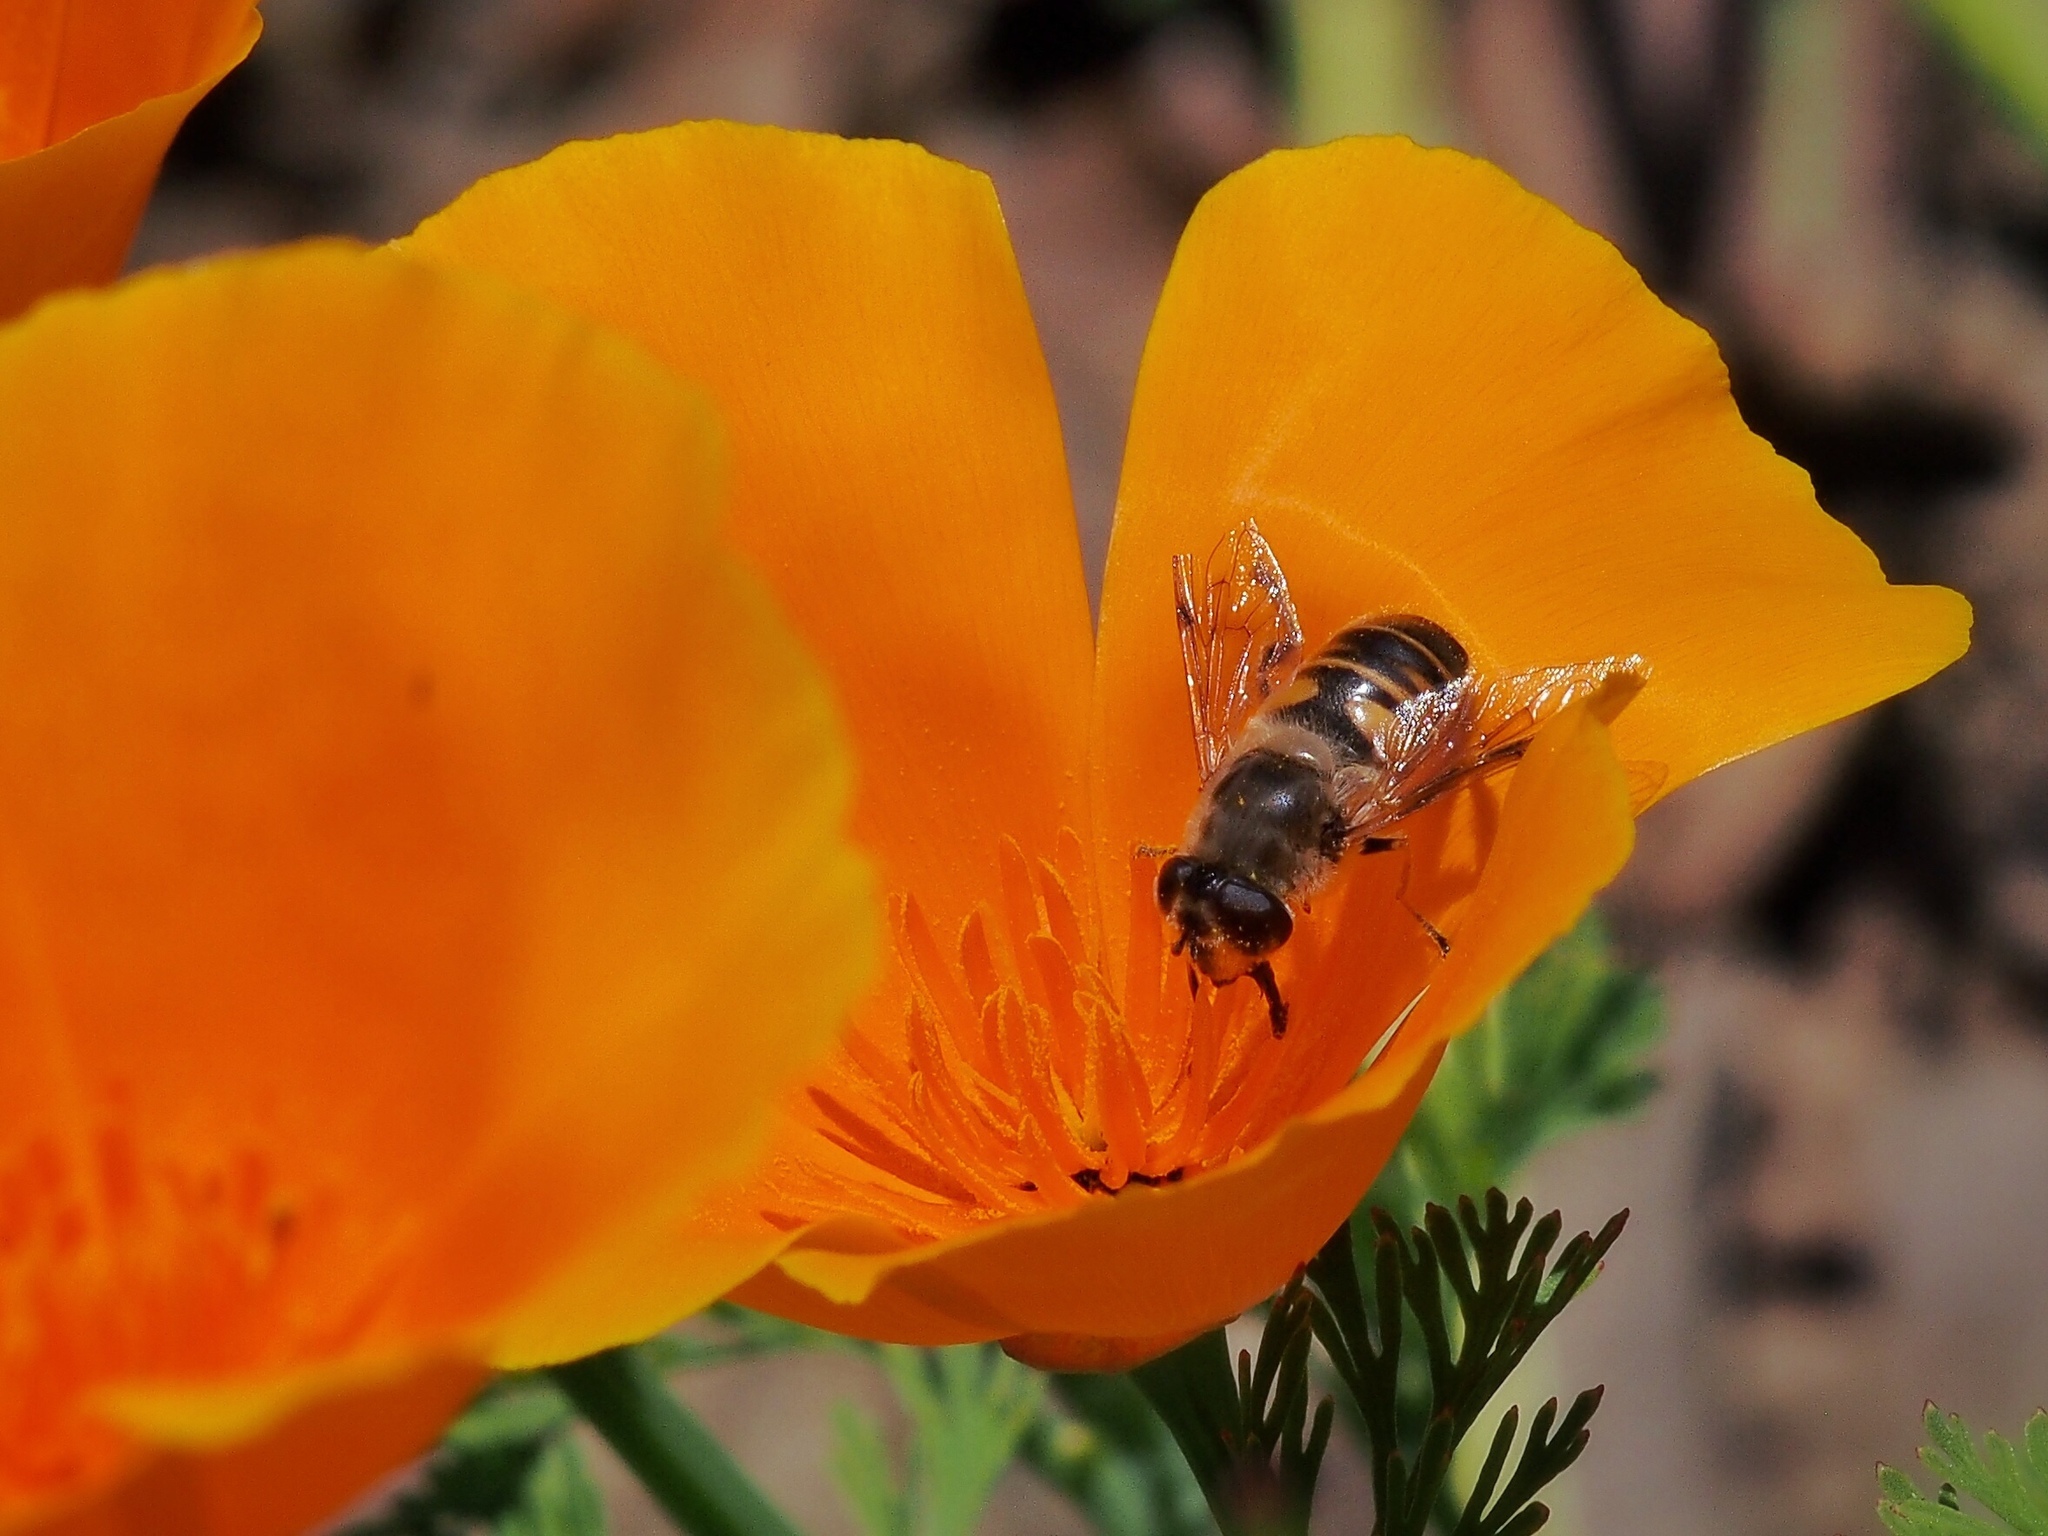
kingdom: Animalia
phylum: Arthropoda
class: Insecta
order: Diptera
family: Syrphidae
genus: Eristalis
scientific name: Eristalis tenax
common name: Drone fly
